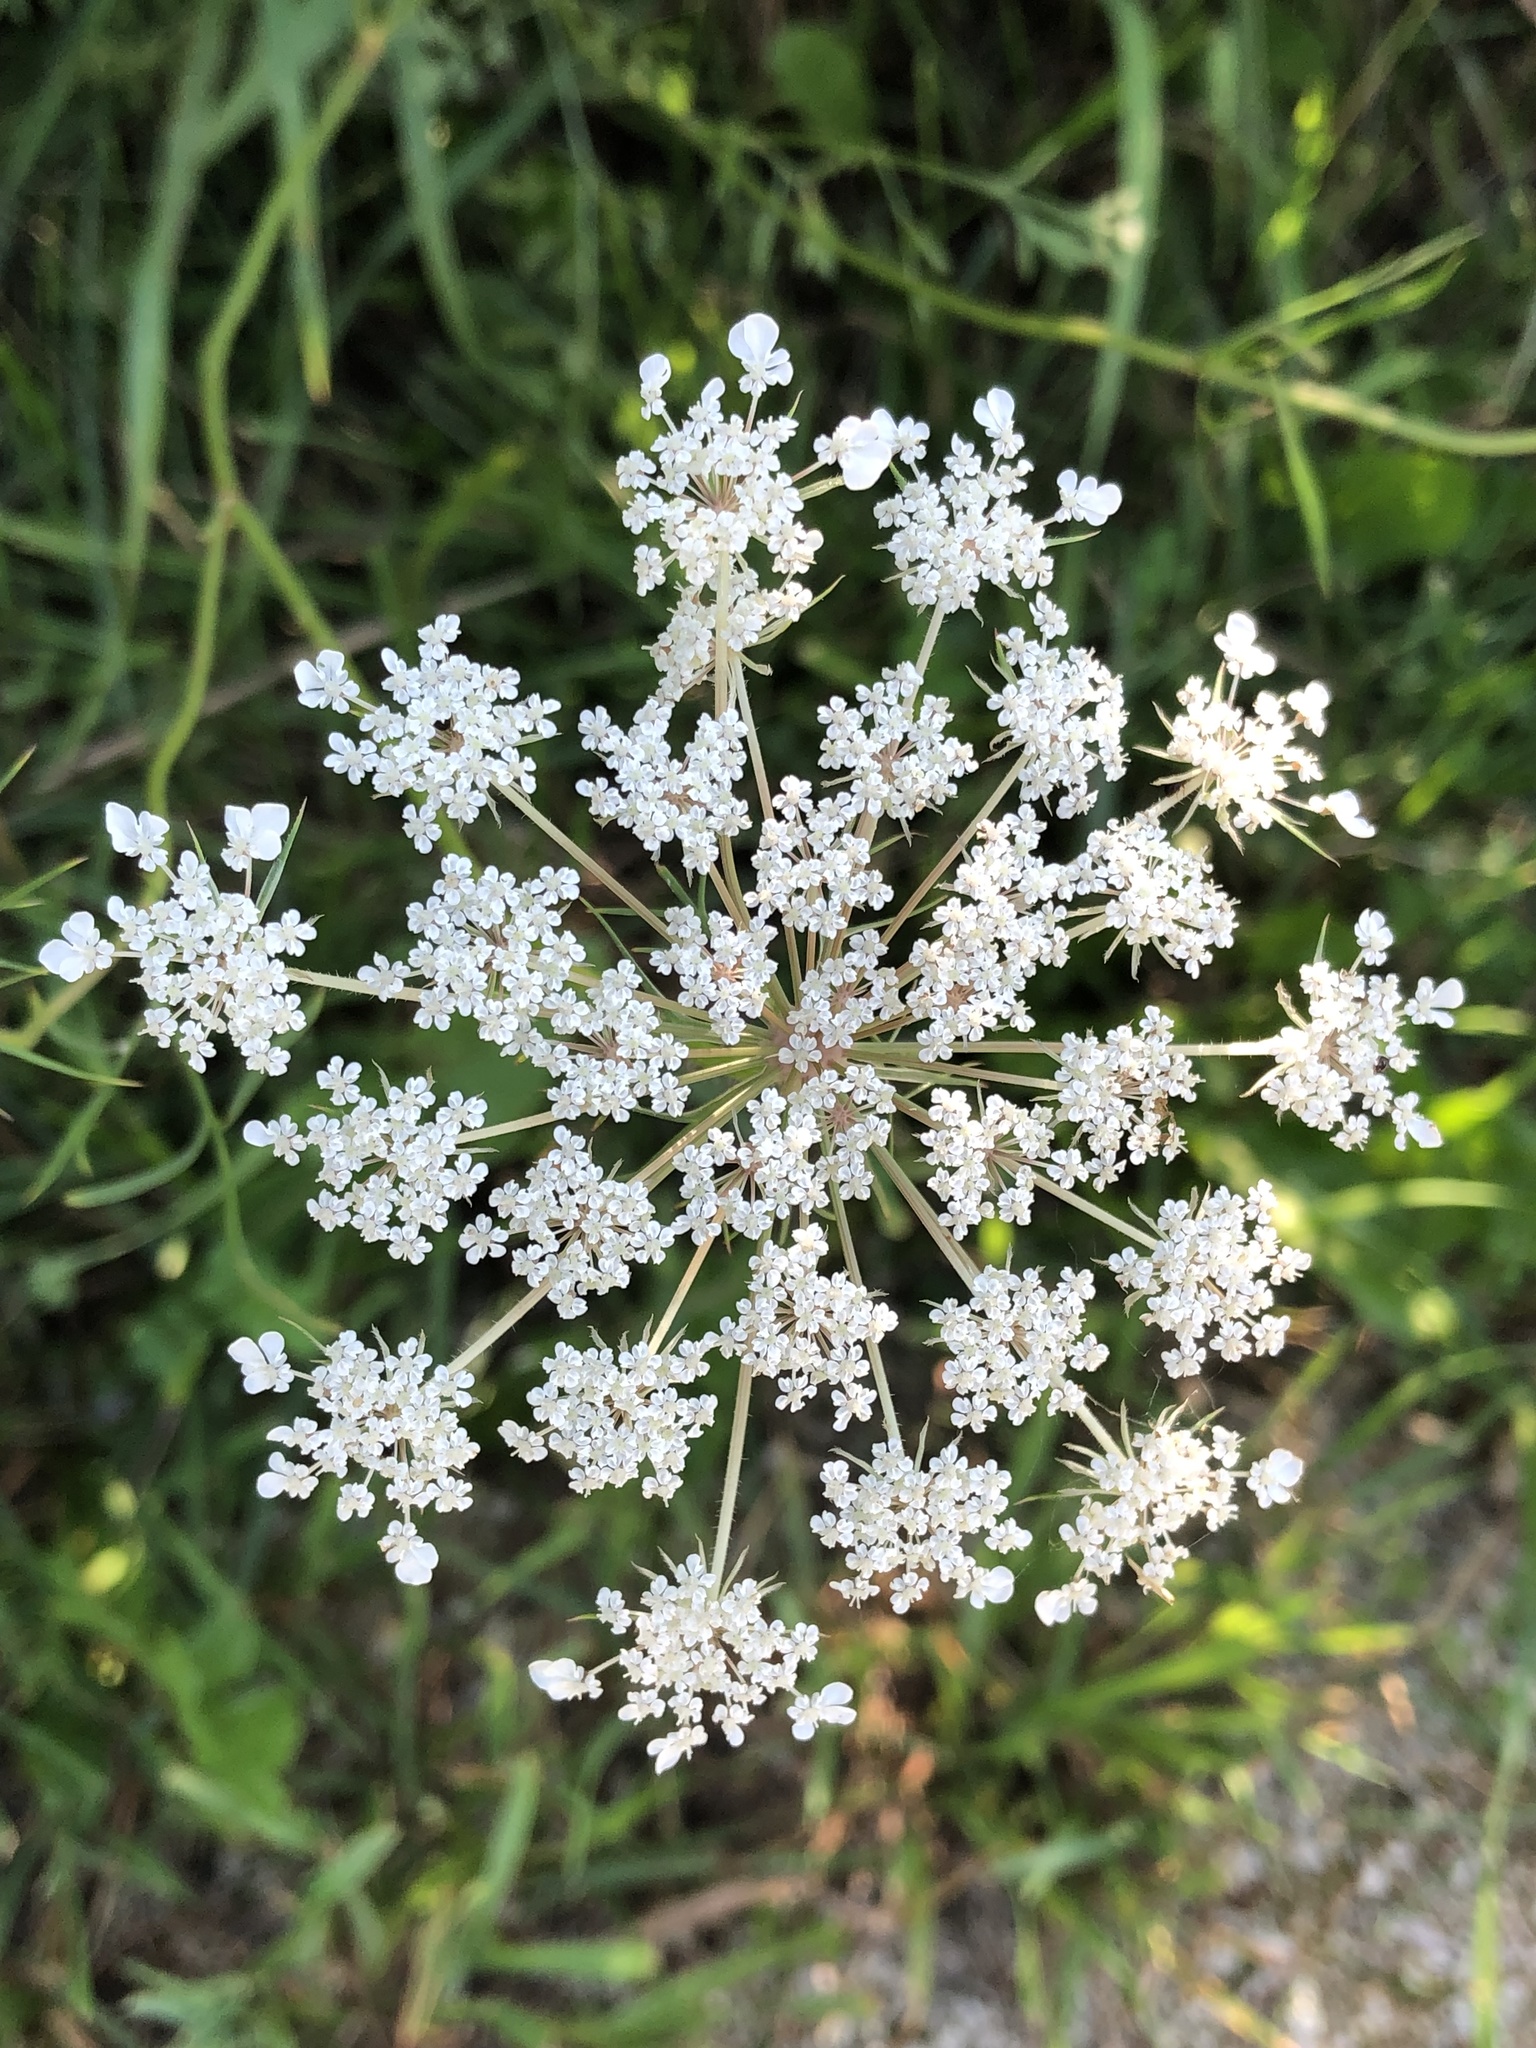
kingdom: Plantae
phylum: Tracheophyta
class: Magnoliopsida
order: Apiales
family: Apiaceae
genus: Daucus
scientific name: Daucus carota
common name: Wild carrot
